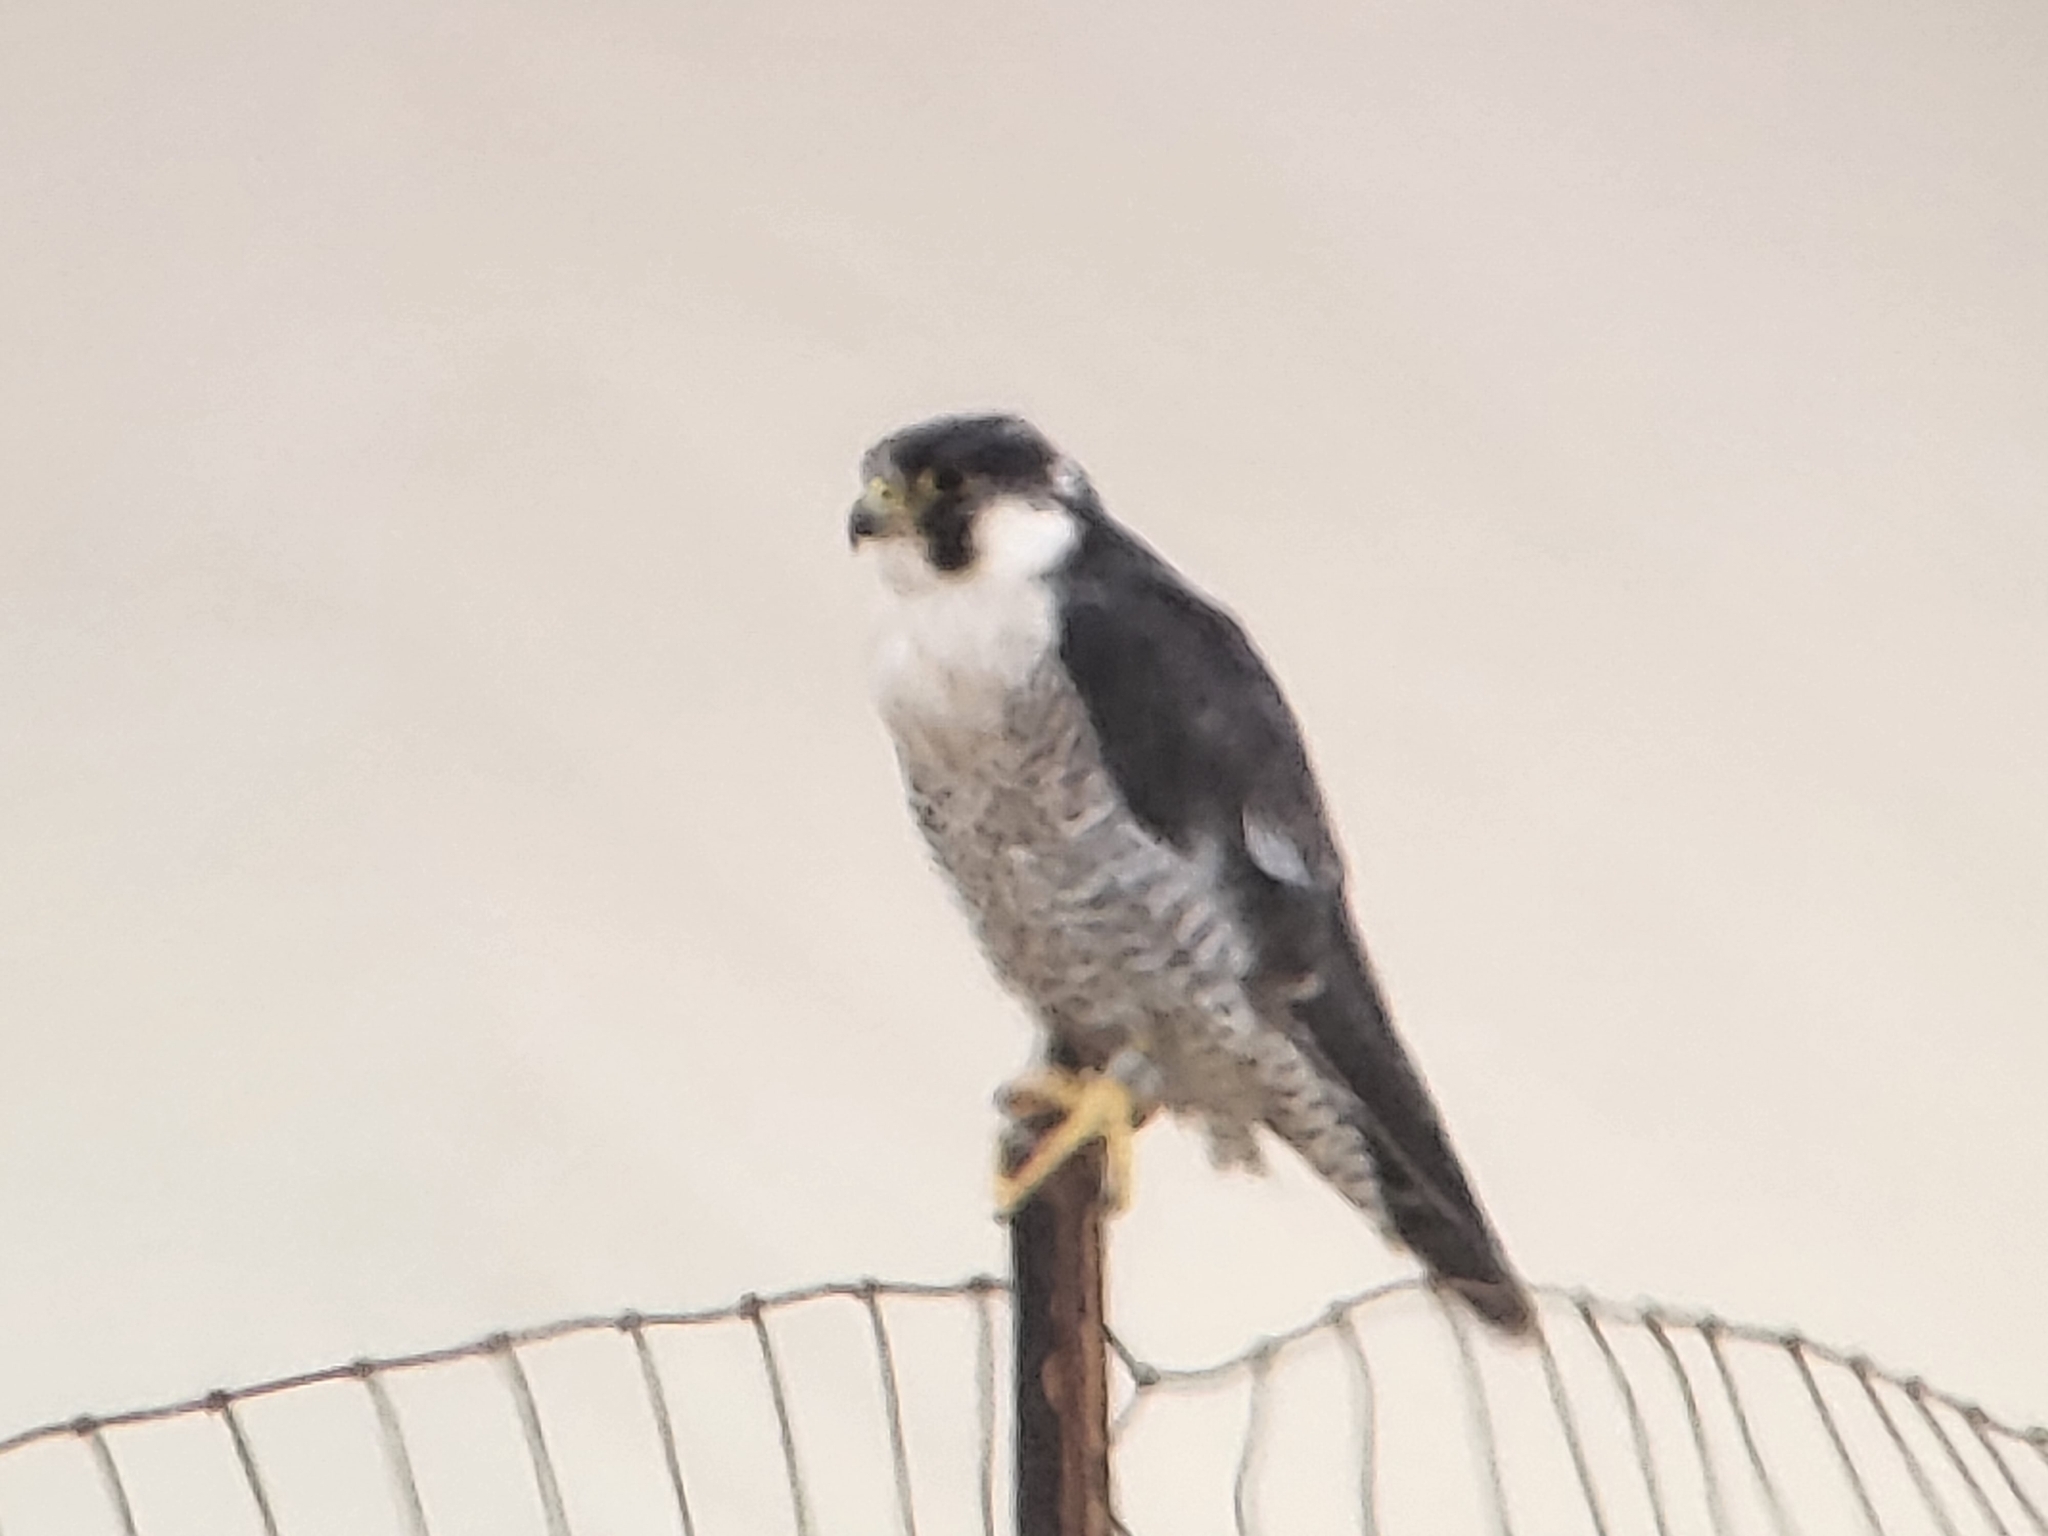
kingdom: Animalia
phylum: Chordata
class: Aves
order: Falconiformes
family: Falconidae
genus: Falco
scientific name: Falco peregrinus
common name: Peregrine falcon
